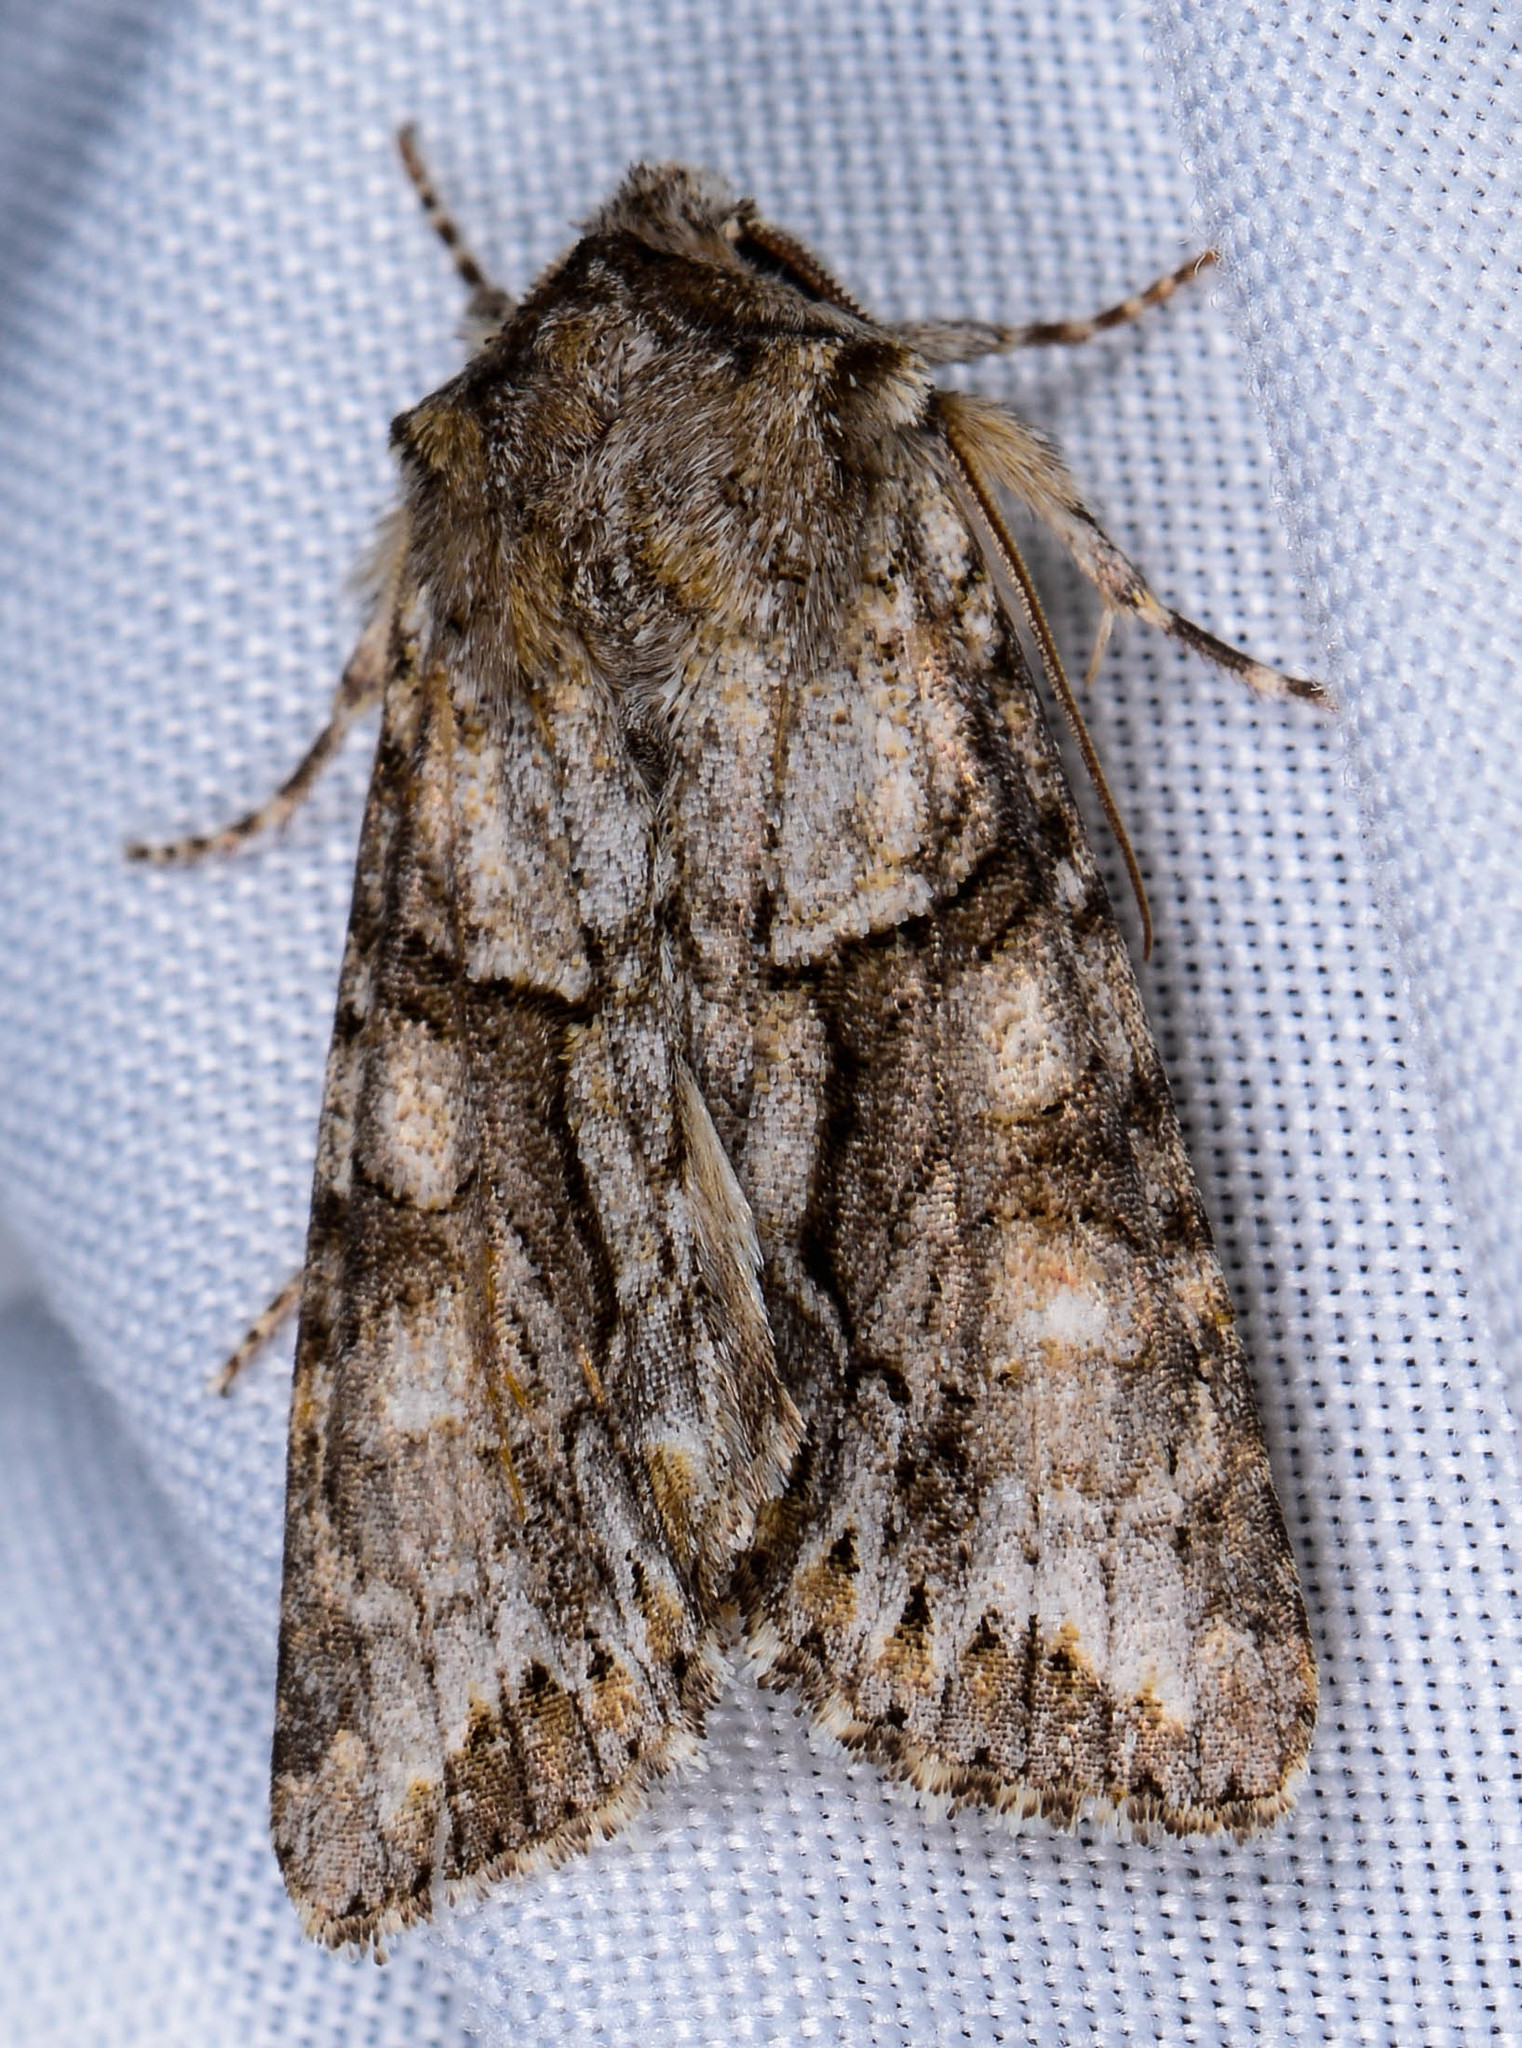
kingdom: Animalia
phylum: Arthropoda
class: Insecta
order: Lepidoptera
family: Noctuidae
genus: Achatia
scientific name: Achatia distincta
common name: Distinct quaker
